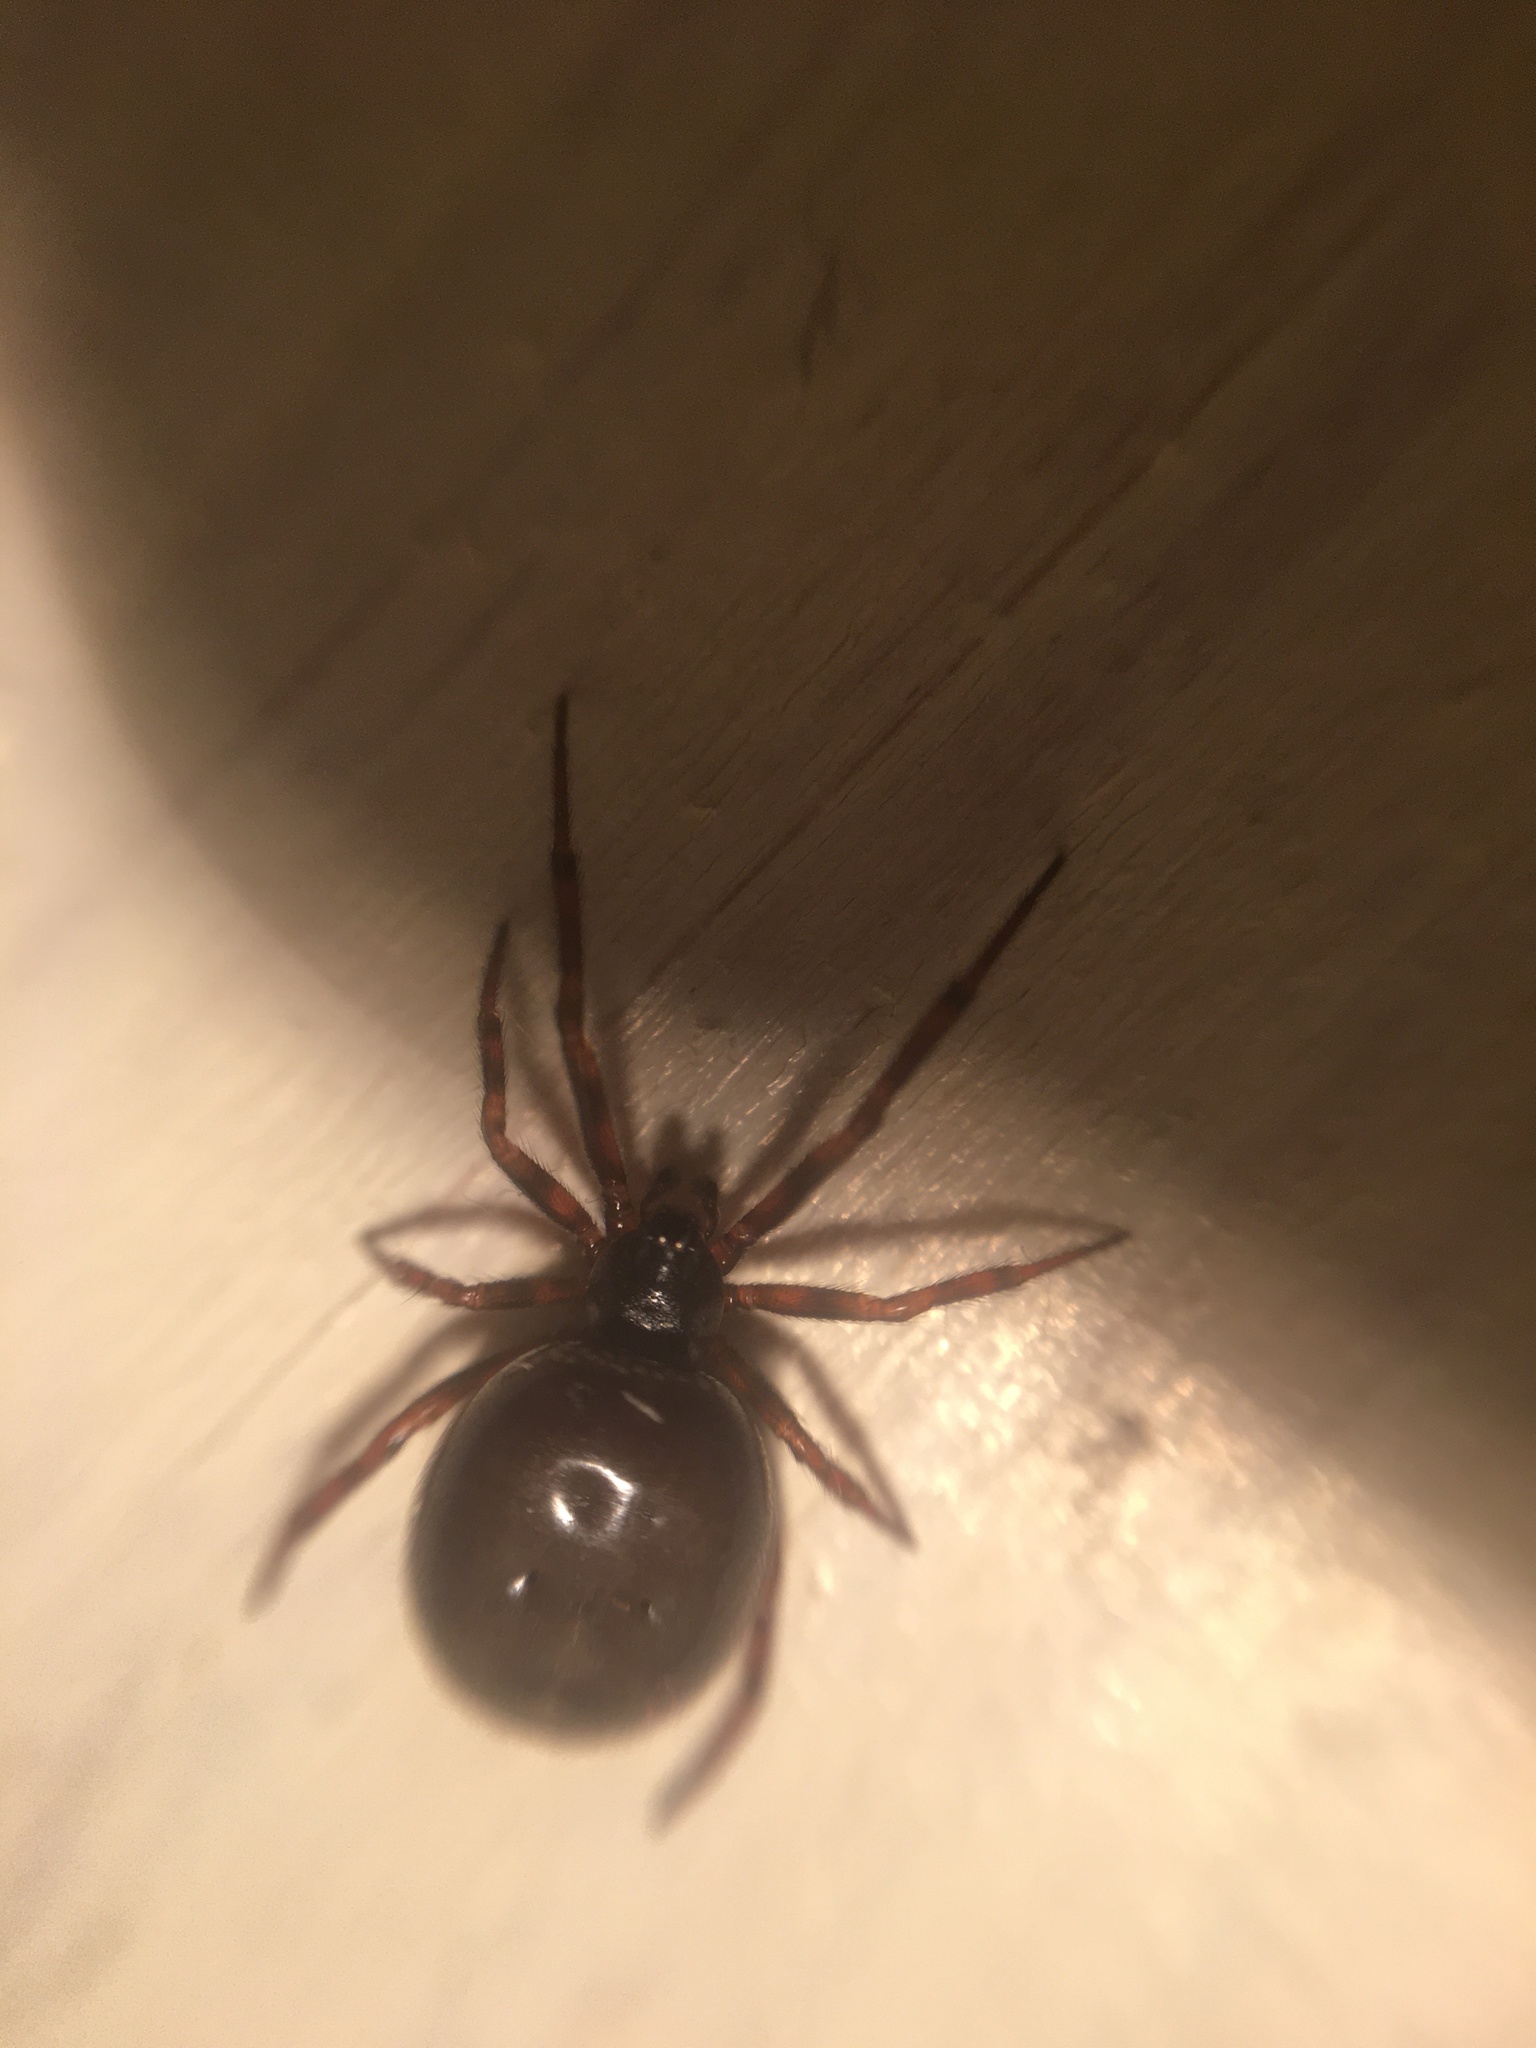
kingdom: Animalia
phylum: Arthropoda
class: Arachnida
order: Araneae
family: Theridiidae
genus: Steatoda
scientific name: Steatoda bipunctata
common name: False widow
